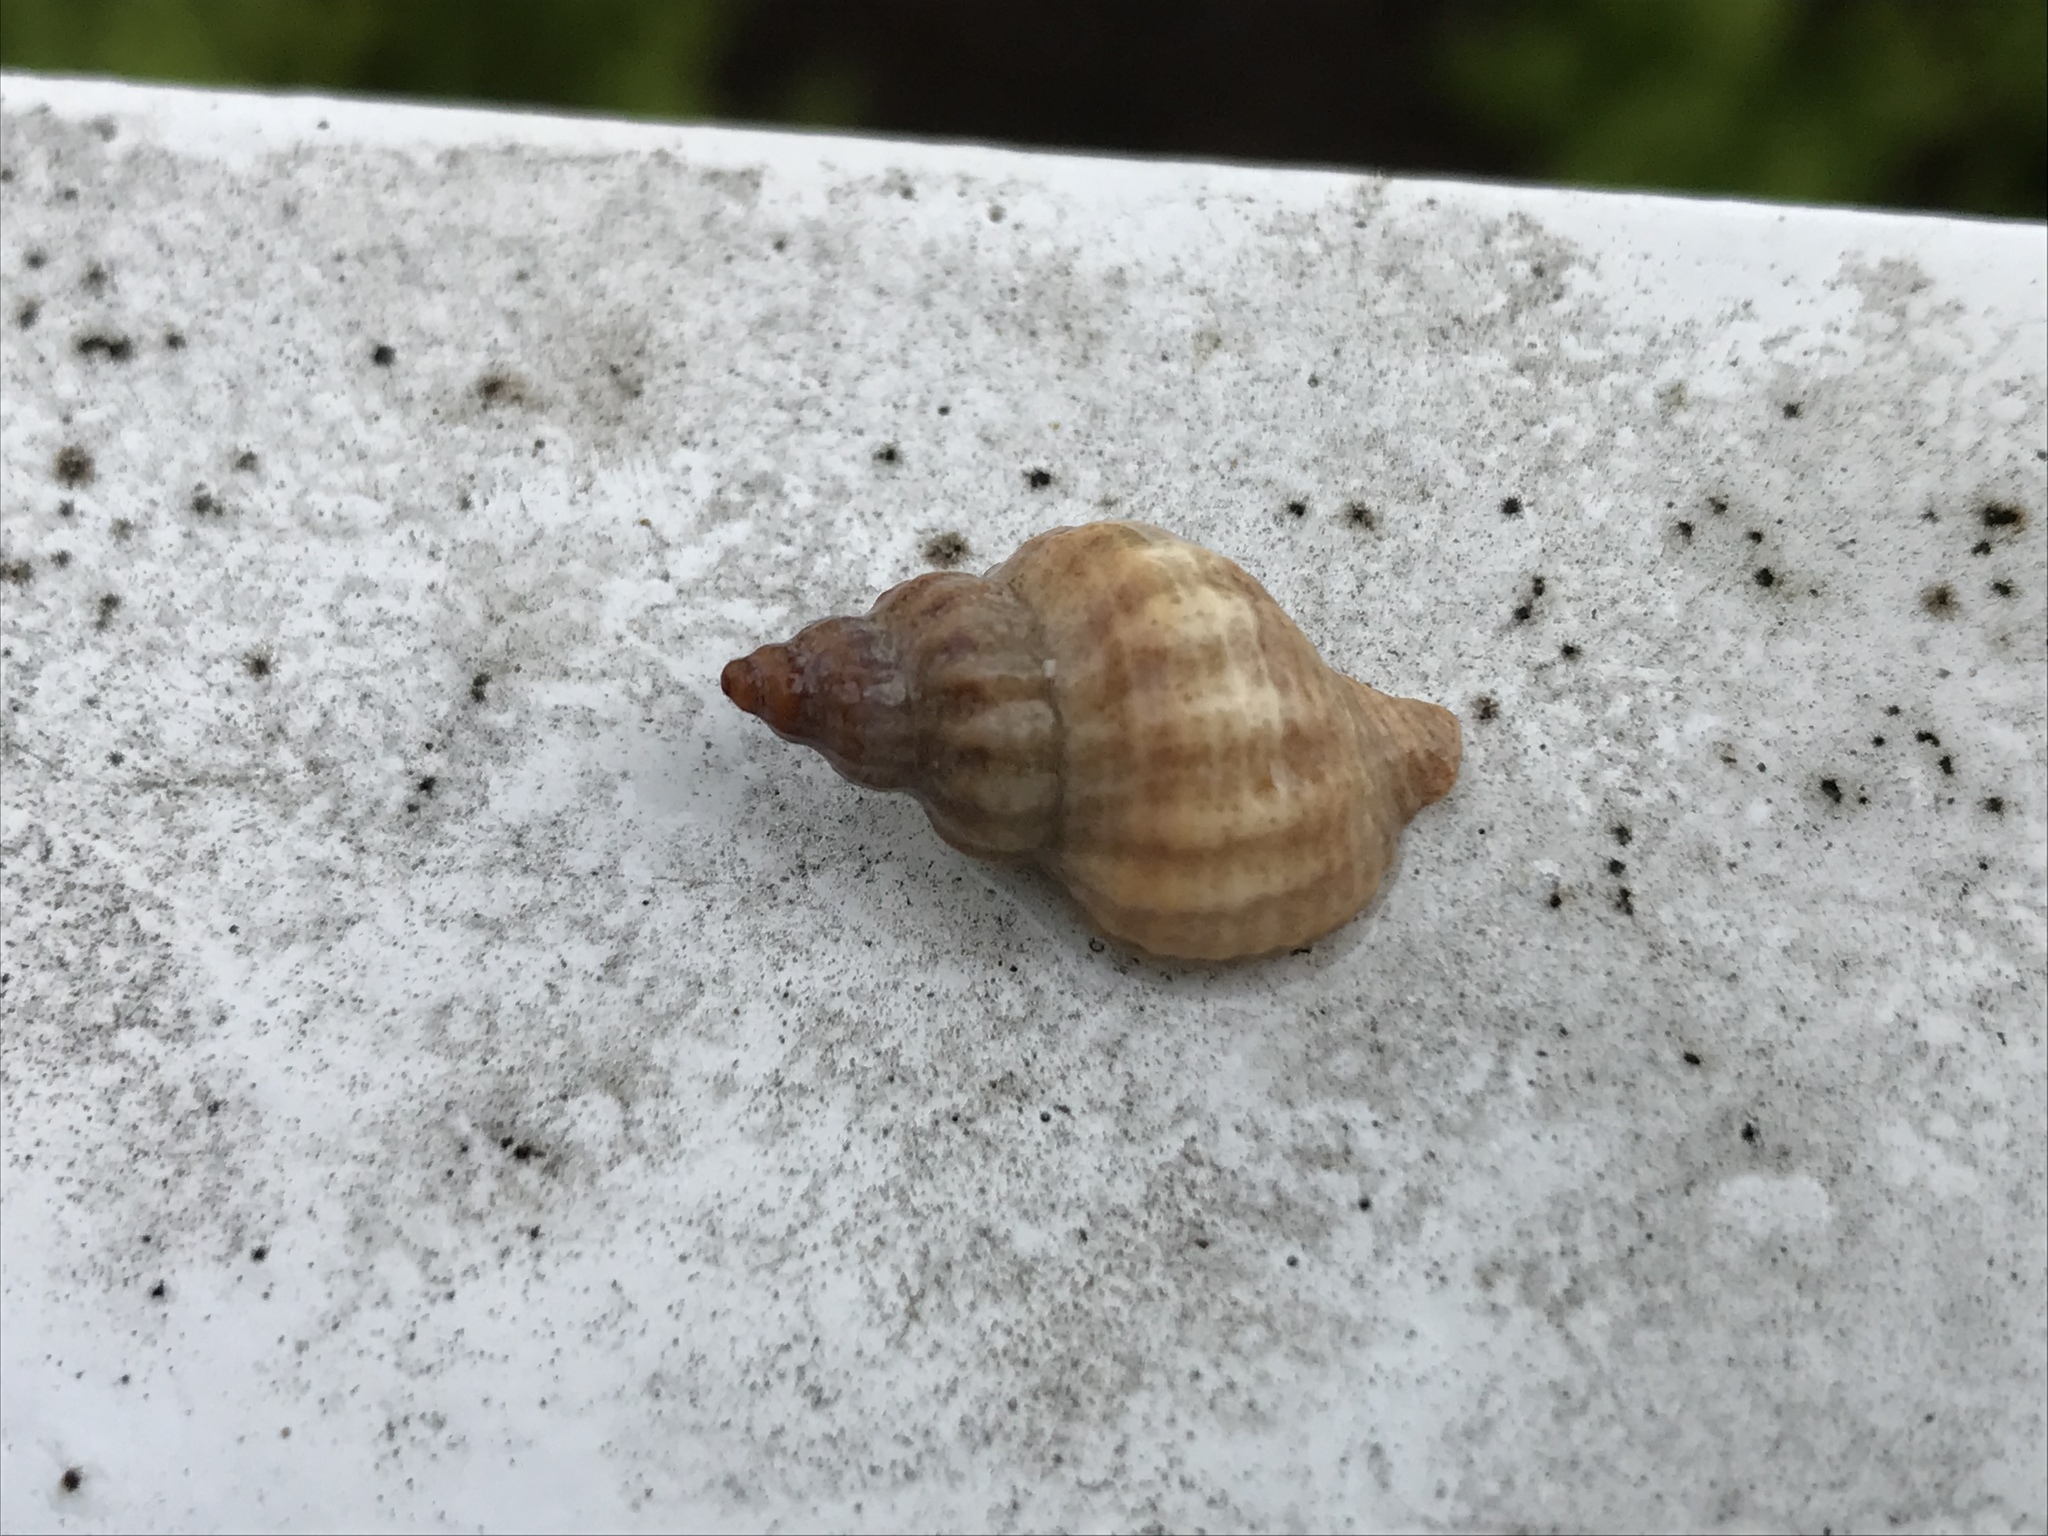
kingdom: Animalia
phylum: Mollusca
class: Gastropoda
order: Neogastropoda
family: Muricidae
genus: Urosalpinx
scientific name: Urosalpinx cinerea
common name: American sting winkle
